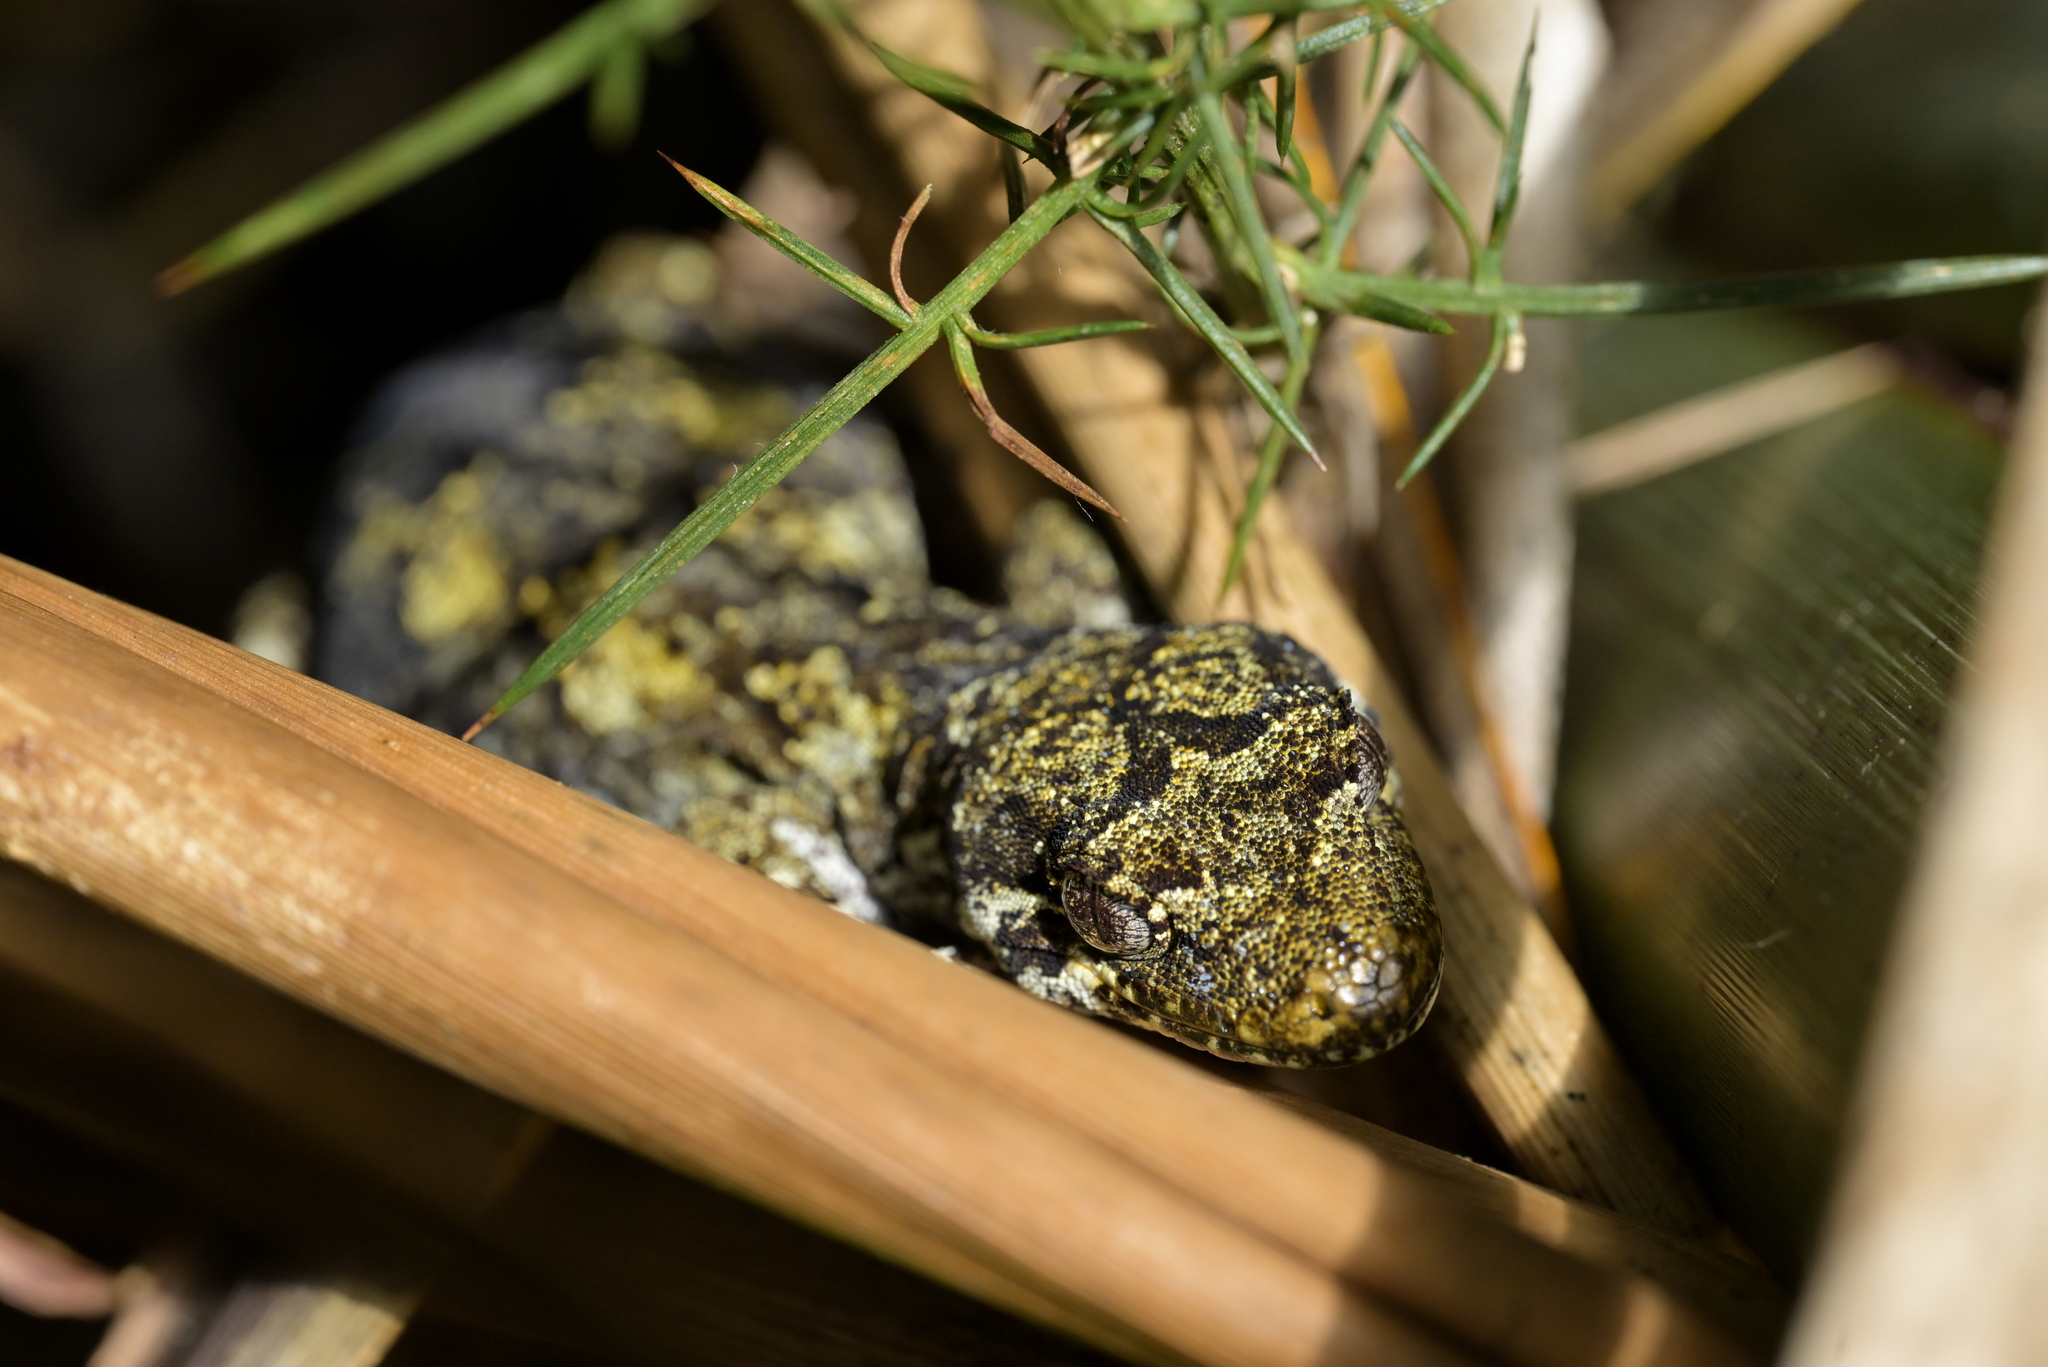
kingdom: Animalia
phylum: Chordata
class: Squamata
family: Diplodactylidae
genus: Mokopirirakau
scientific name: Mokopirirakau
